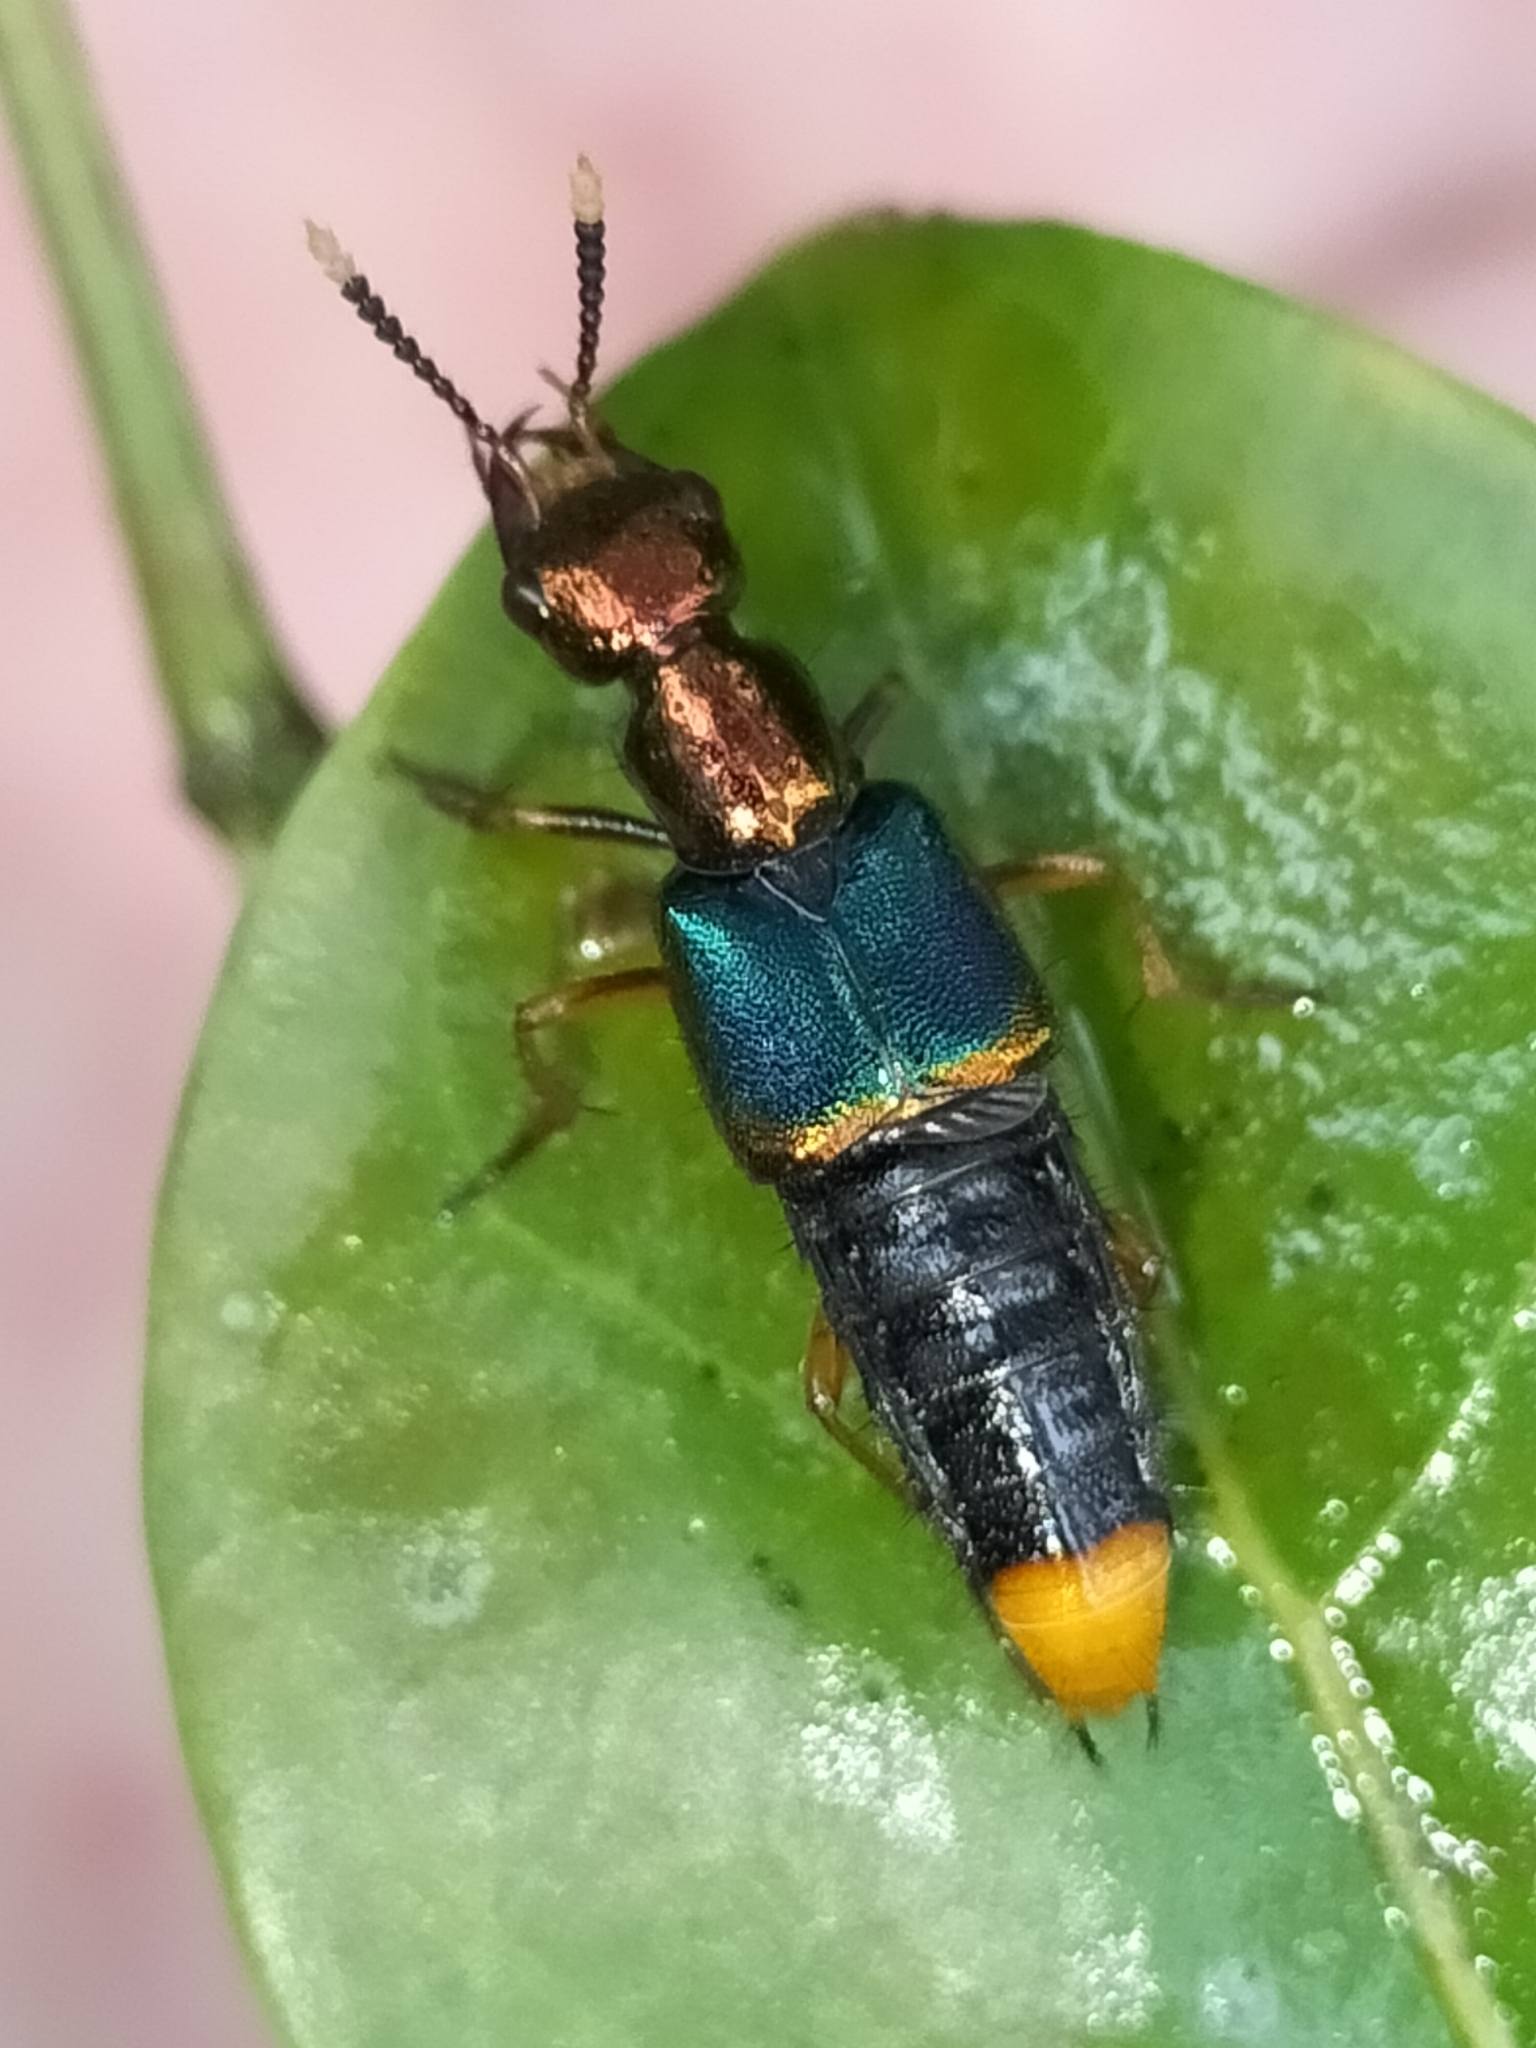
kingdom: Animalia
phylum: Arthropoda
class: Insecta
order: Coleoptera
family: Staphylinidae
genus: Actinus
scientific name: Actinus macleayi
